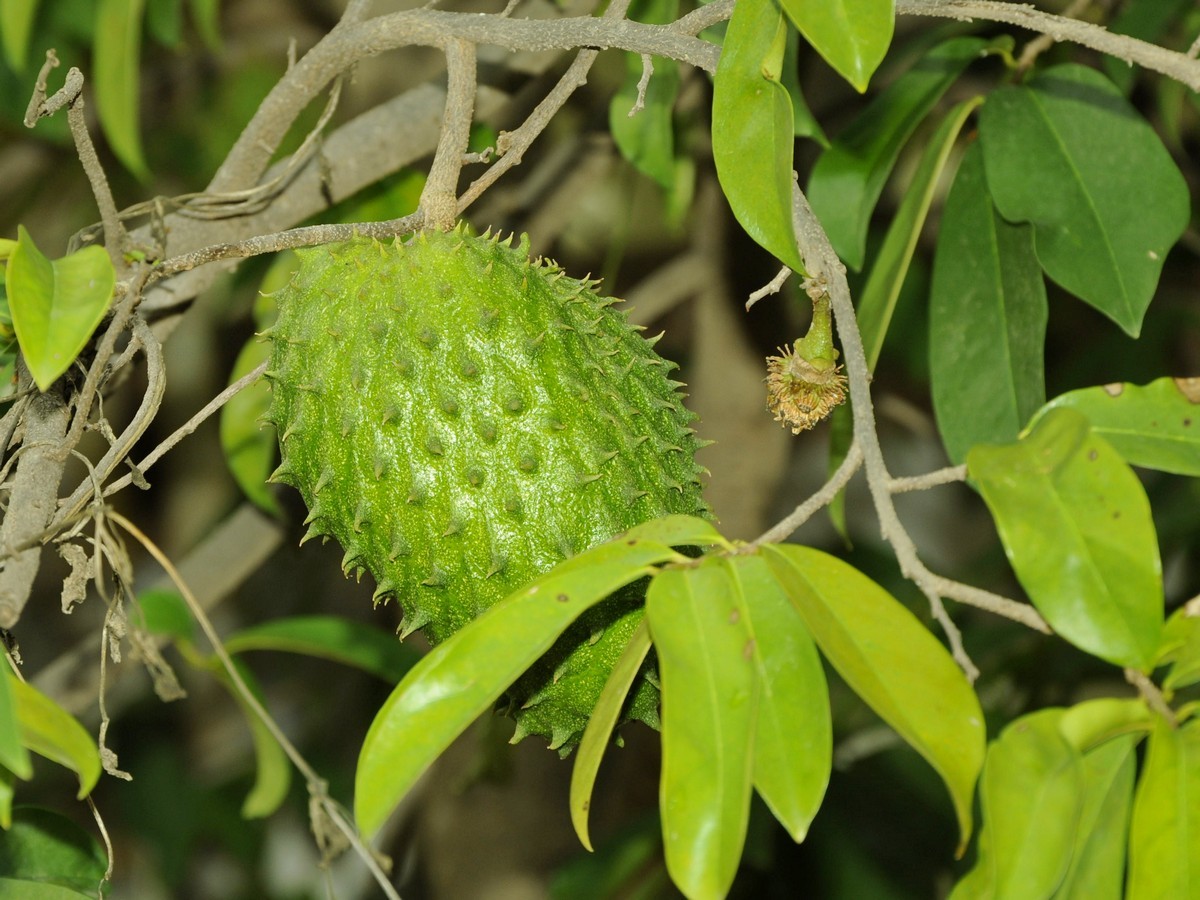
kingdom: Plantae
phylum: Tracheophyta
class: Magnoliopsida
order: Magnoliales
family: Annonaceae
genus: Annona
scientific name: Annona muricata
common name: Soursop
